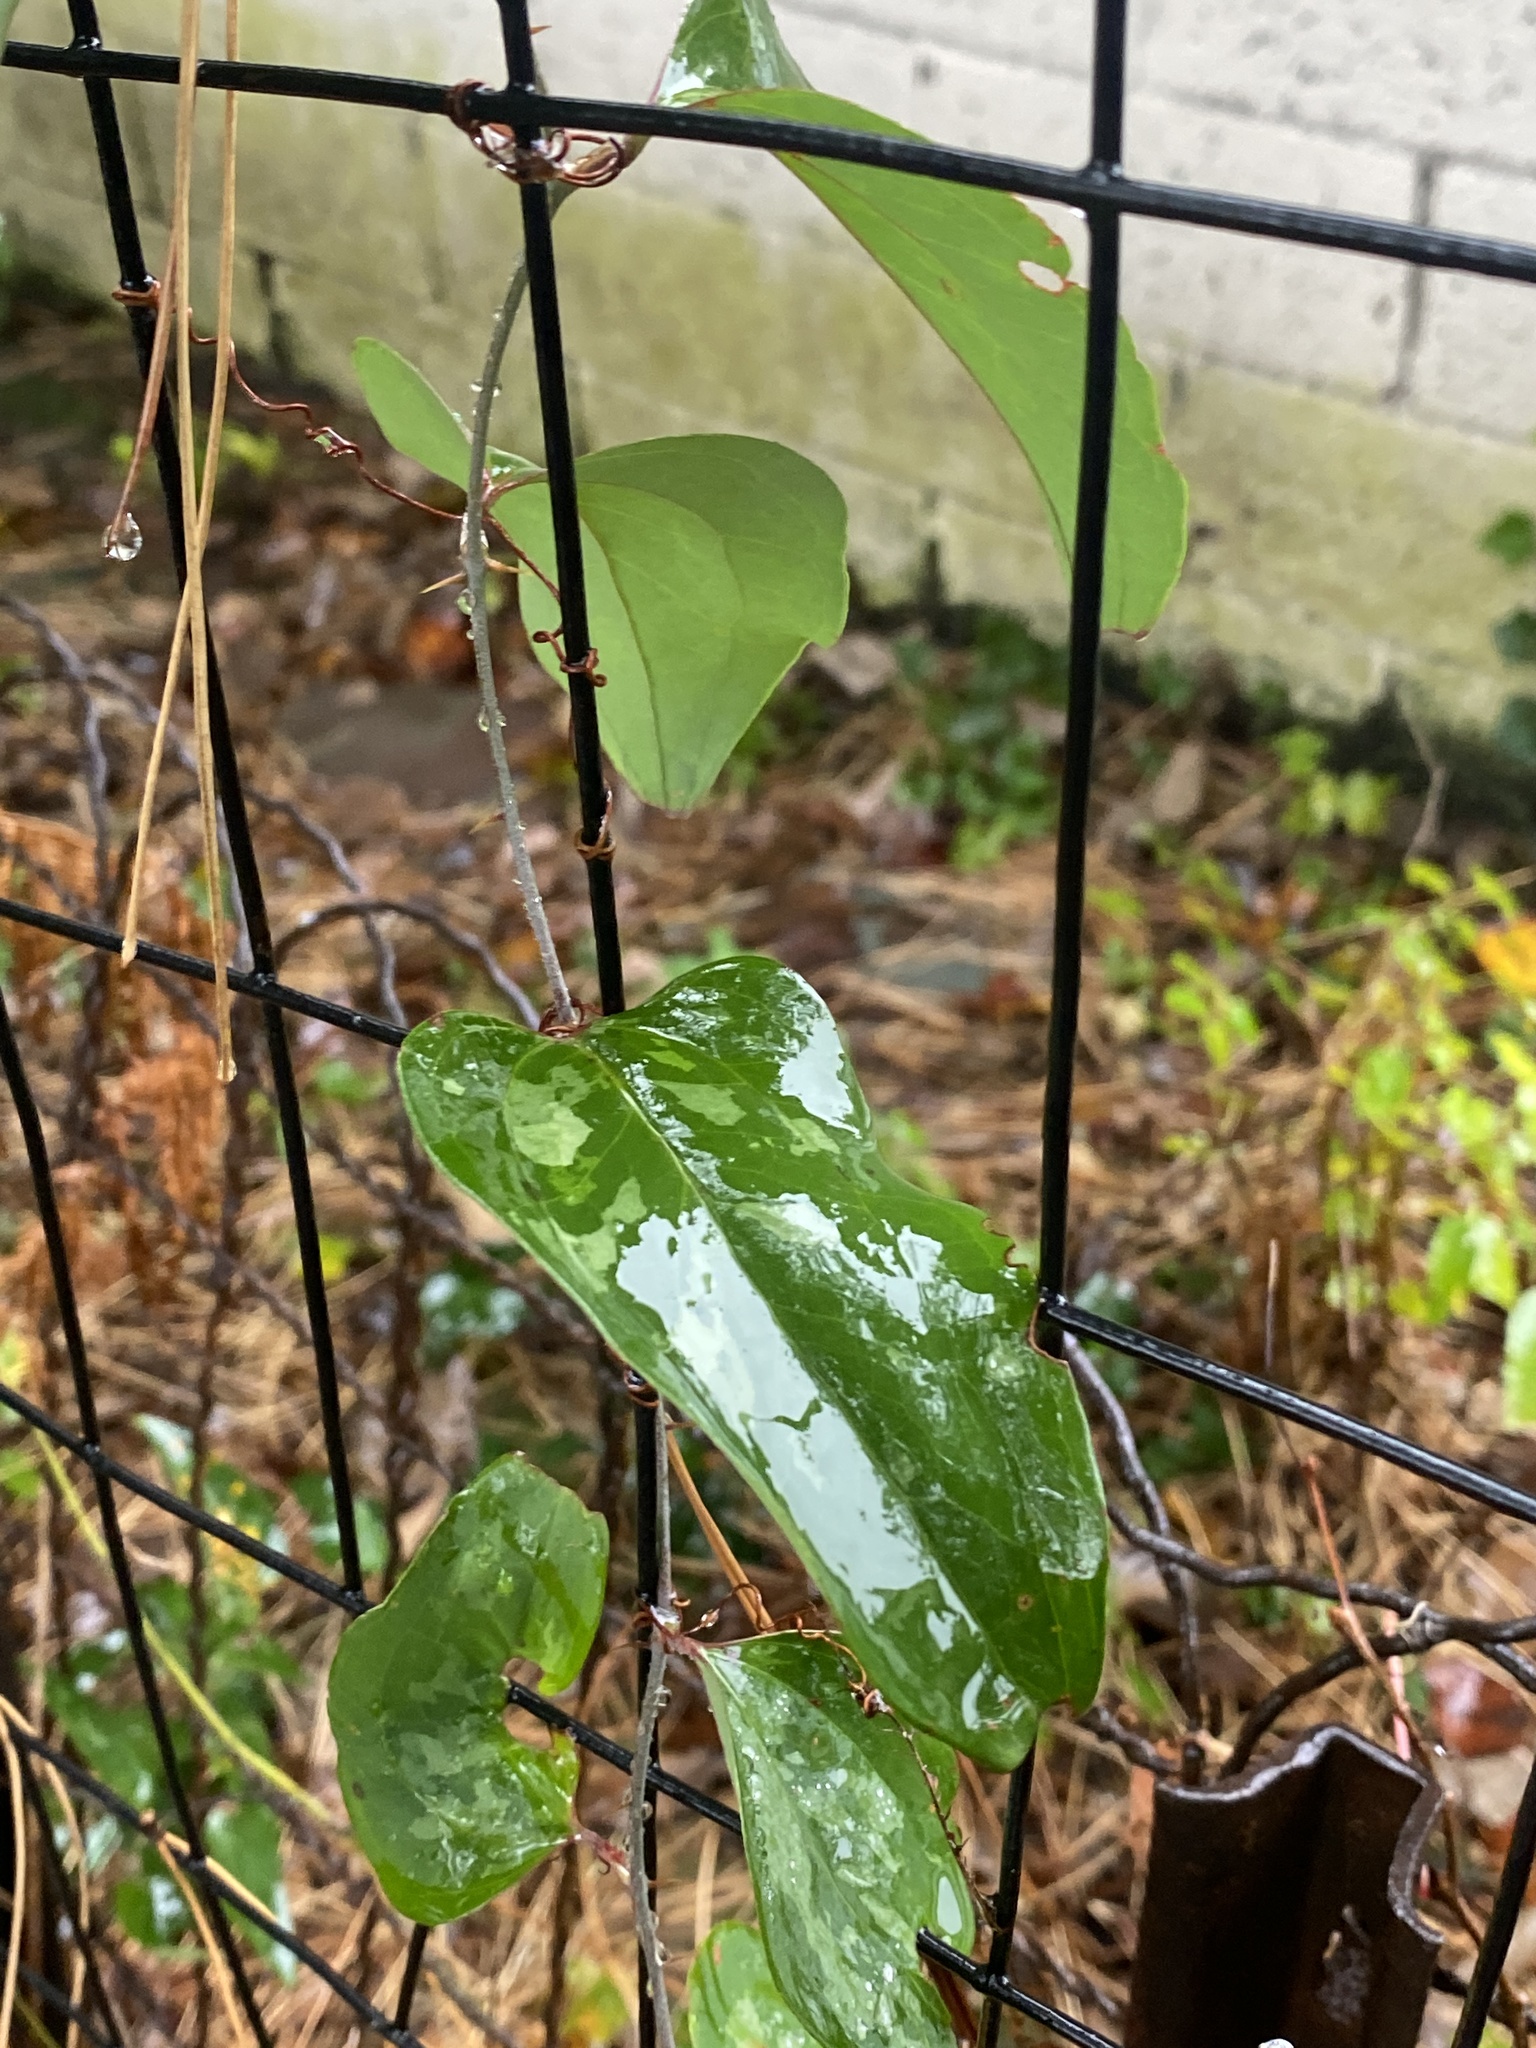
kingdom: Plantae
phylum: Tracheophyta
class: Liliopsida
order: Liliales
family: Smilacaceae
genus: Smilax
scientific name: Smilax glauca
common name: Cat greenbrier
